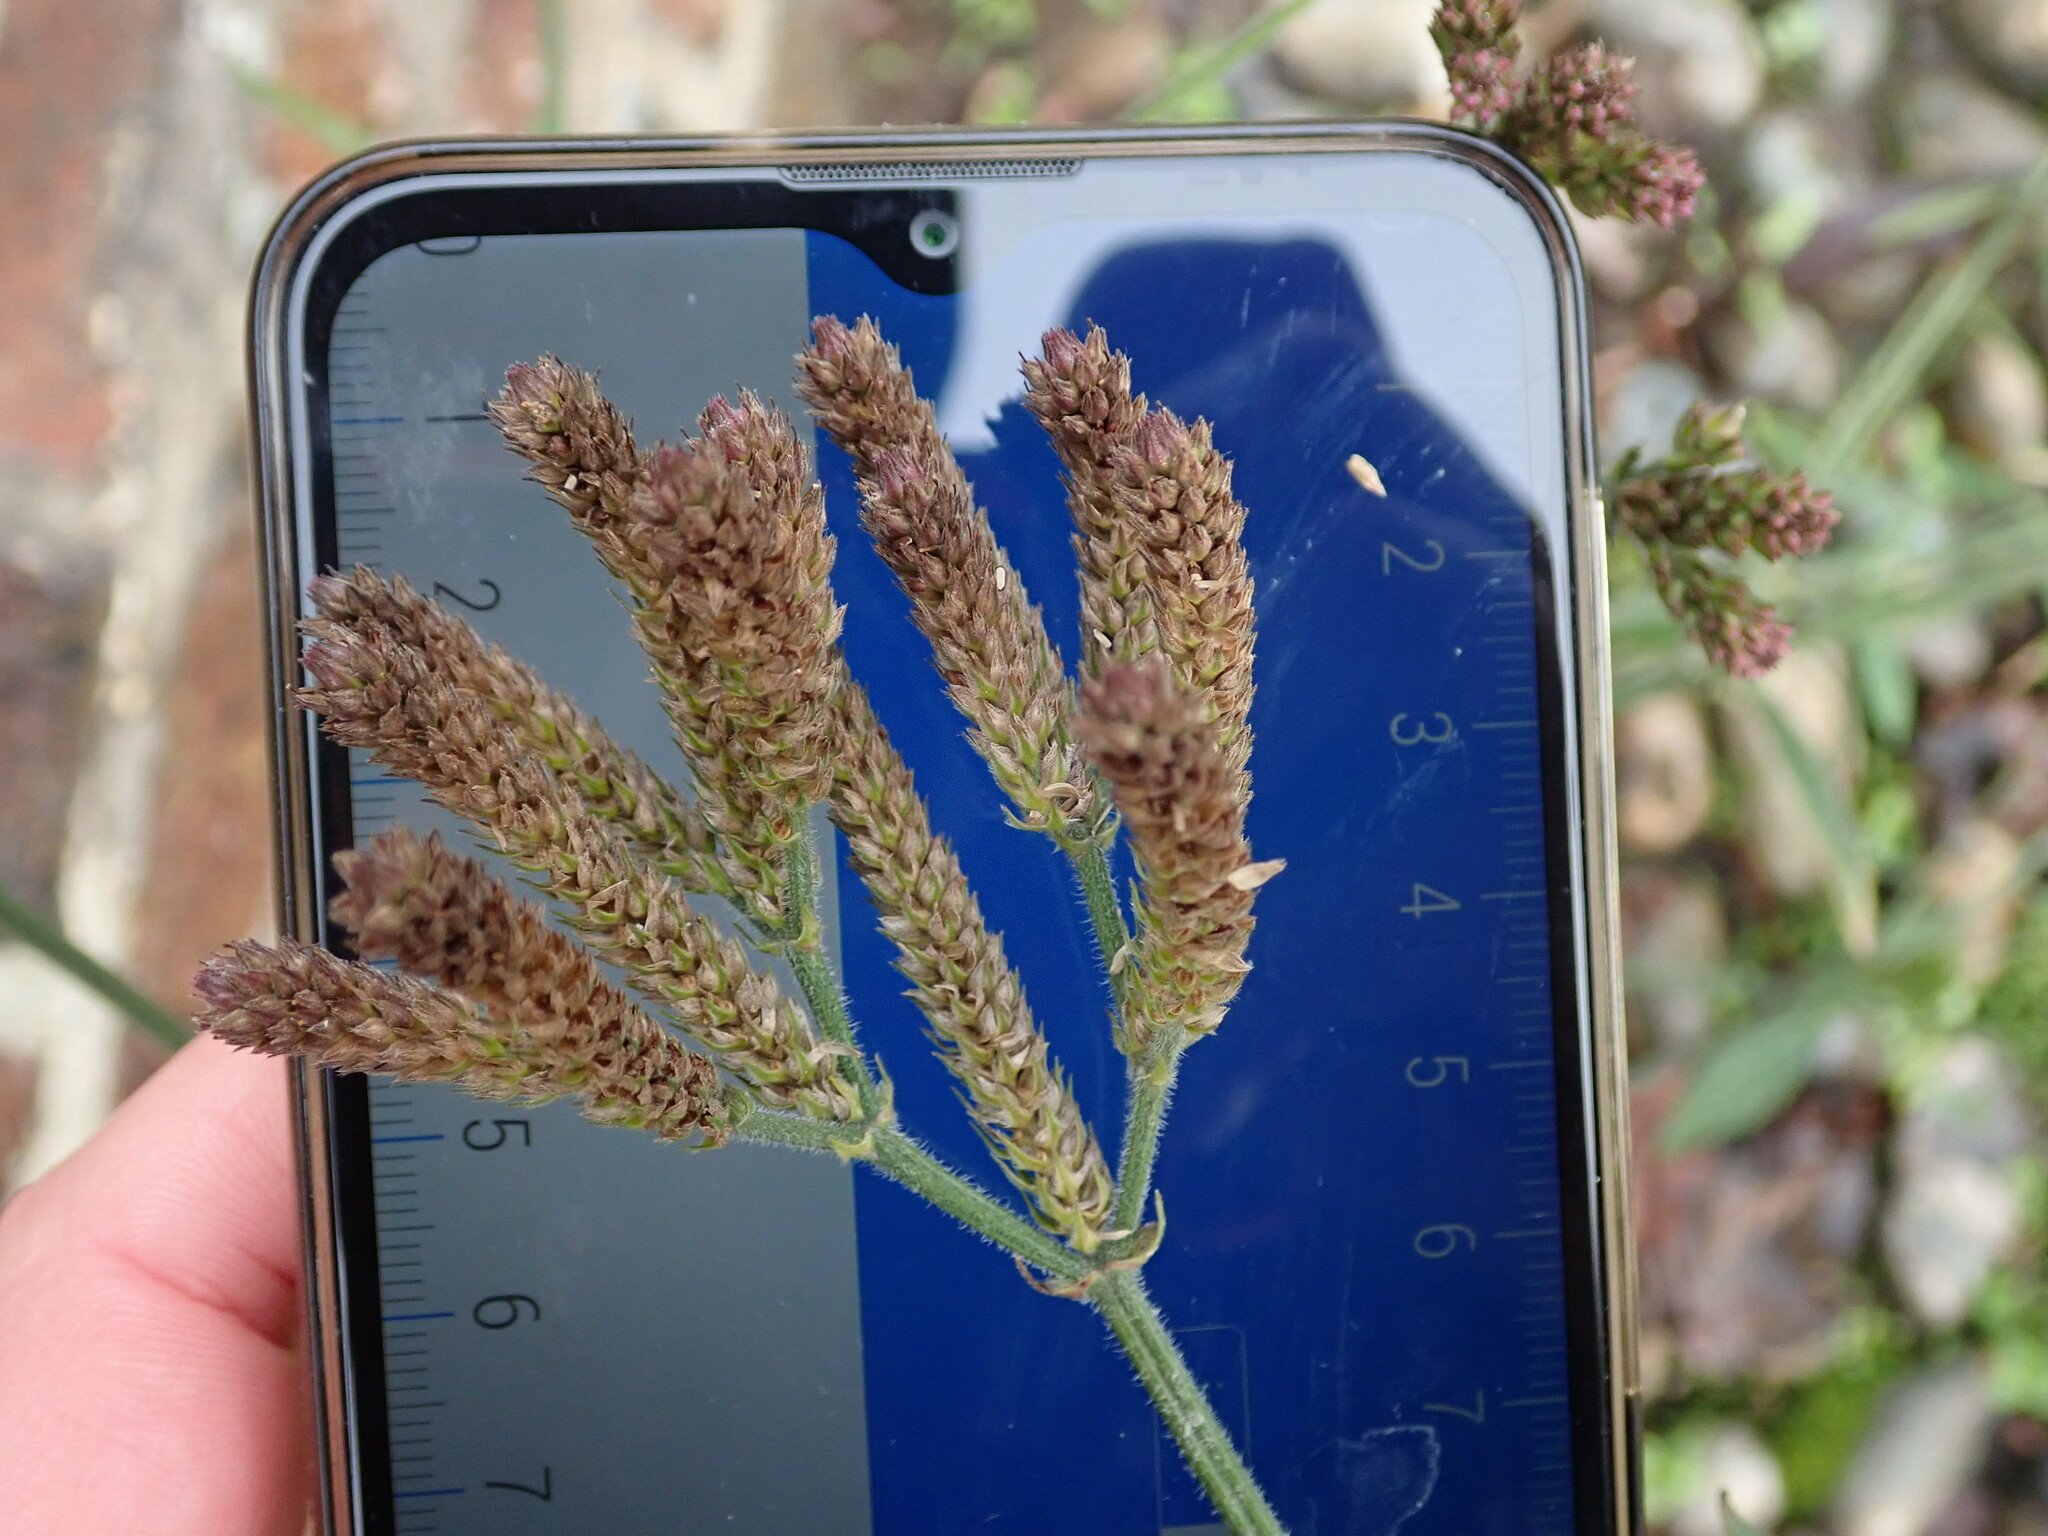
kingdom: Plantae
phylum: Tracheophyta
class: Magnoliopsida
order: Lamiales
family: Verbenaceae
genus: Verbena
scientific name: Verbena incompta
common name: Purpletop vervain
